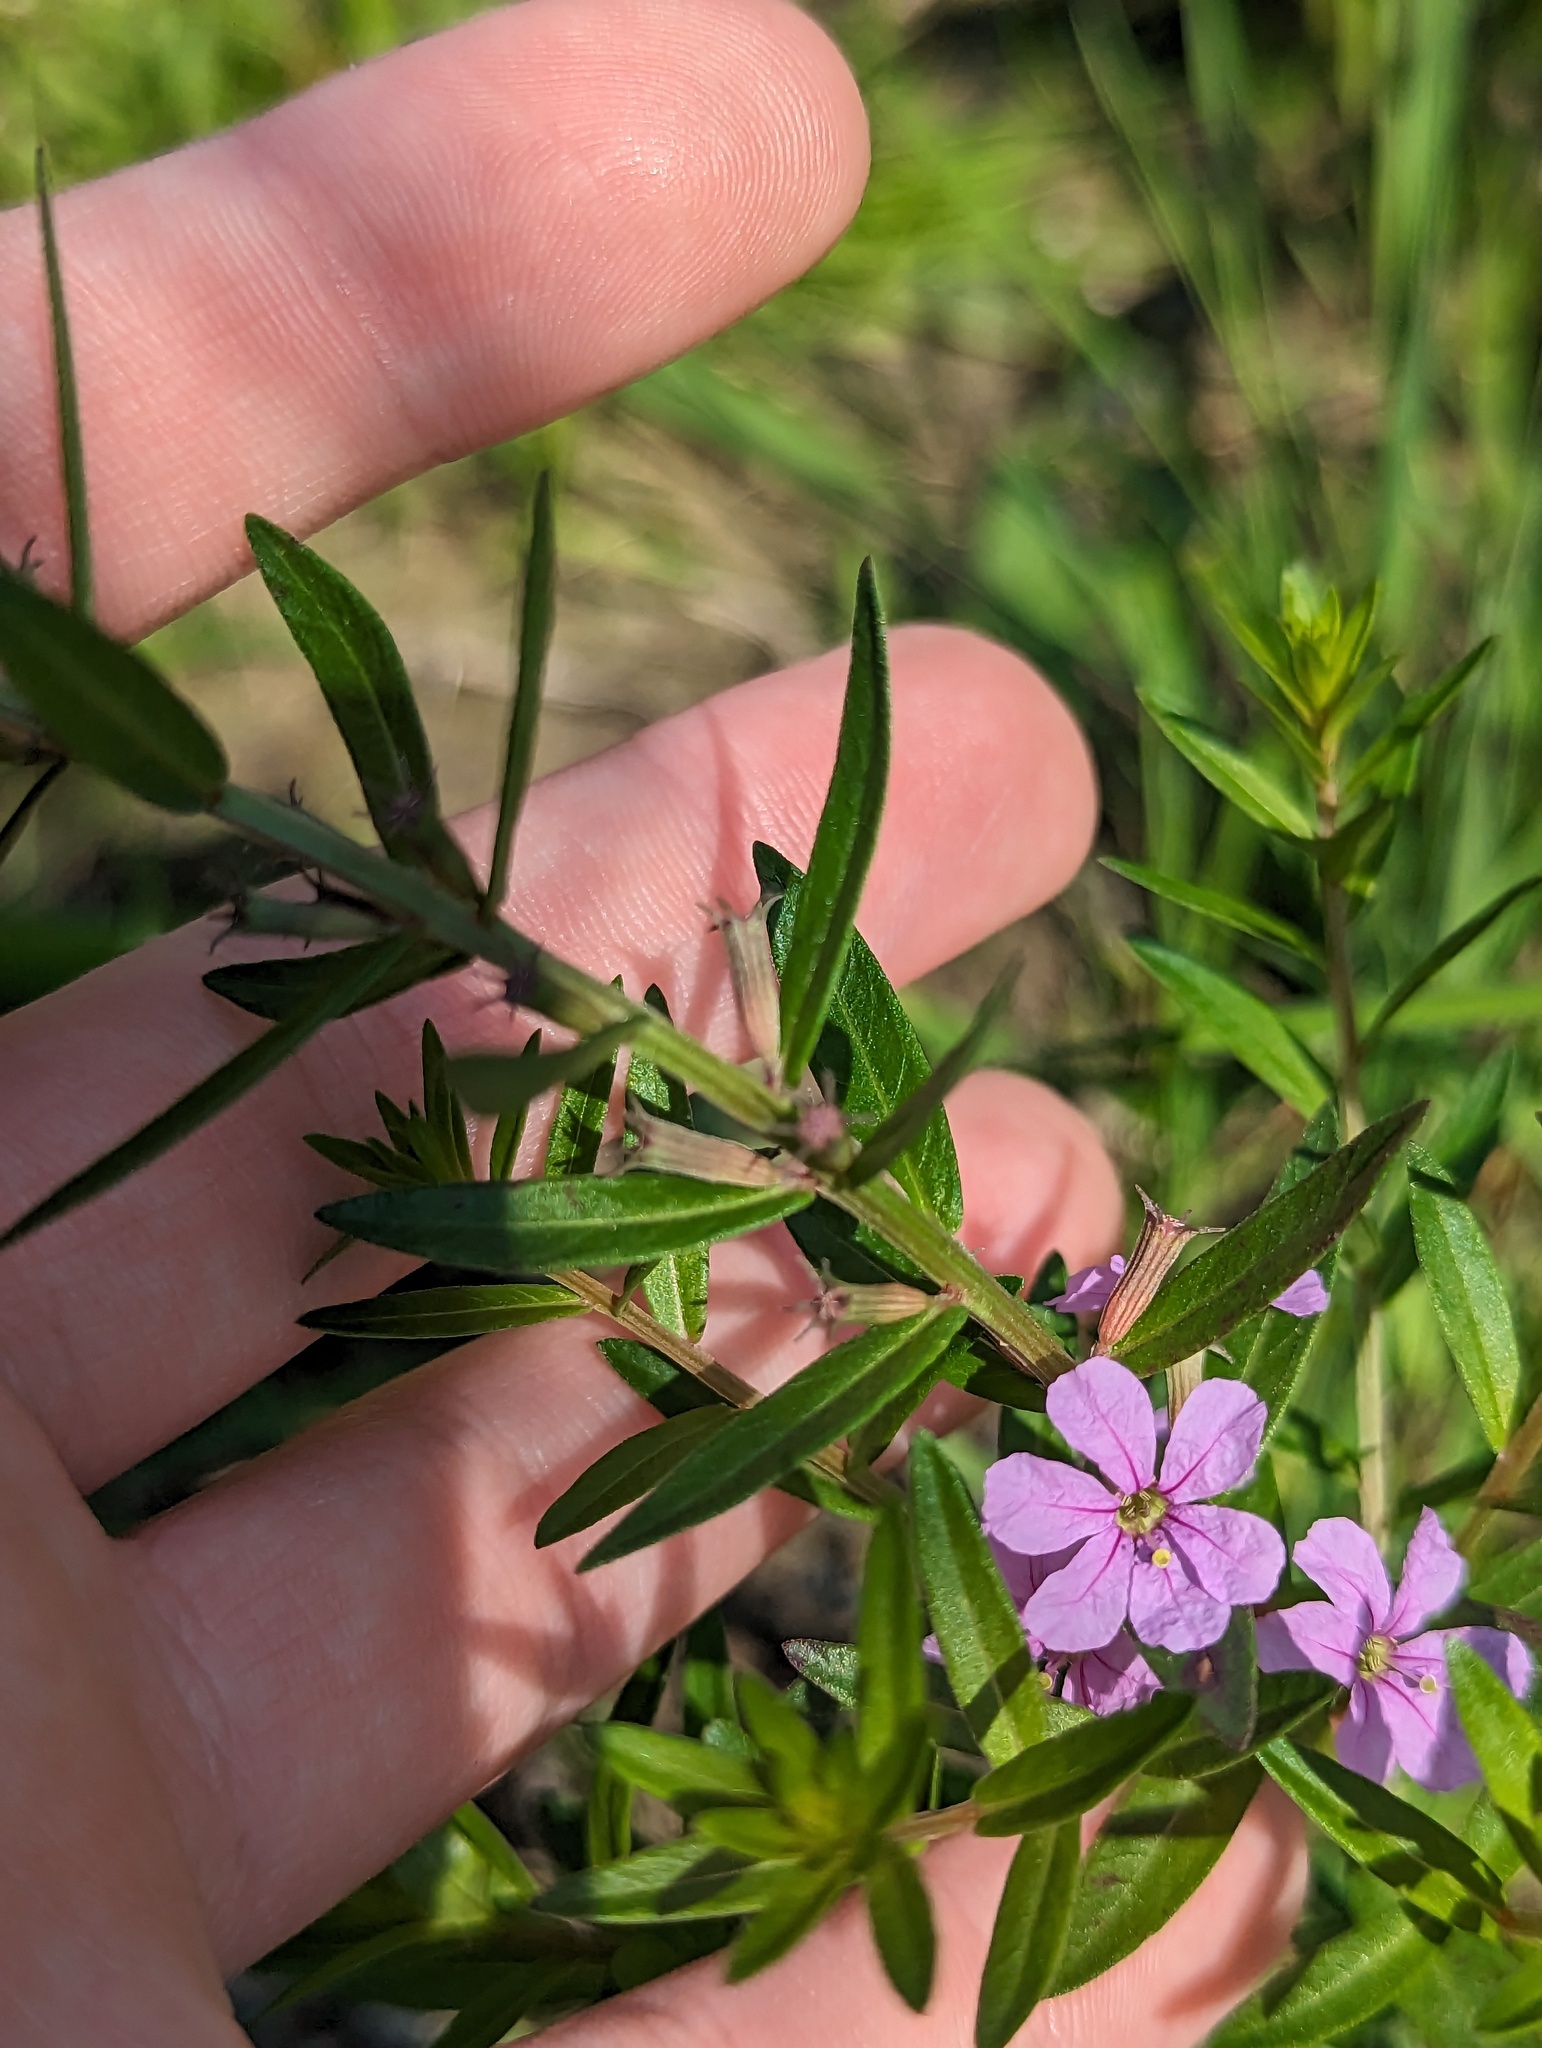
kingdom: Plantae
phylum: Tracheophyta
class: Magnoliopsida
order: Myrtales
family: Lythraceae
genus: Lythrum
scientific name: Lythrum alatum
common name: Winged loosestrife
